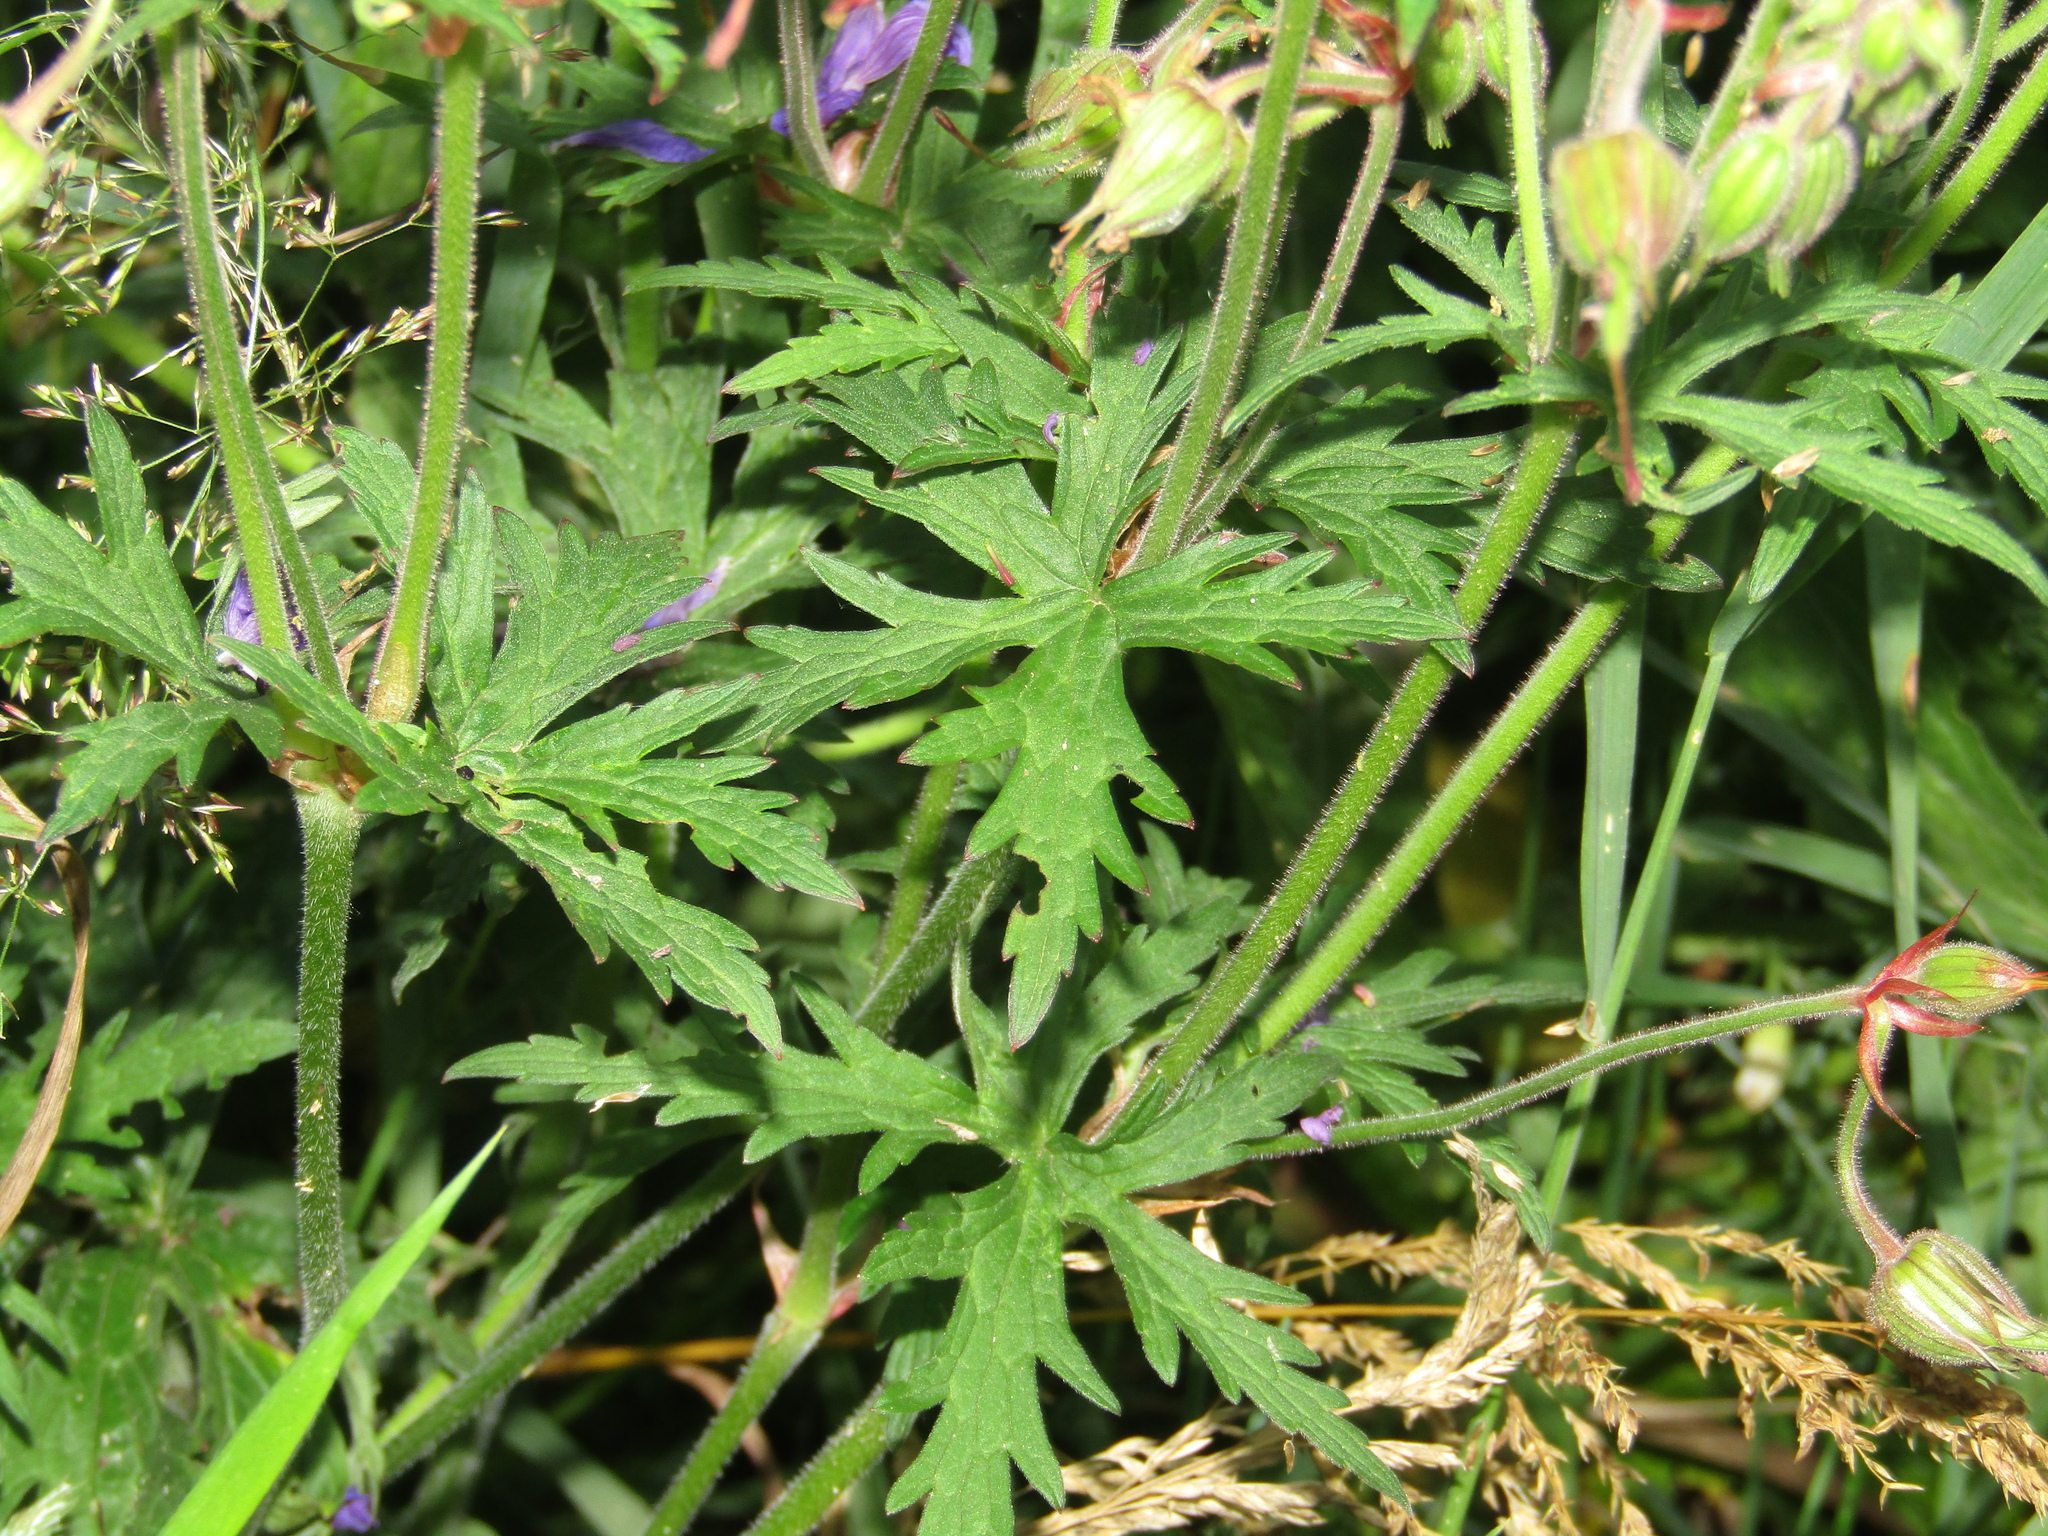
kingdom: Plantae
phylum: Tracheophyta
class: Magnoliopsida
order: Geraniales
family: Geraniaceae
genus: Geranium
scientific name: Geranium pratense
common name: Meadow crane's-bill
